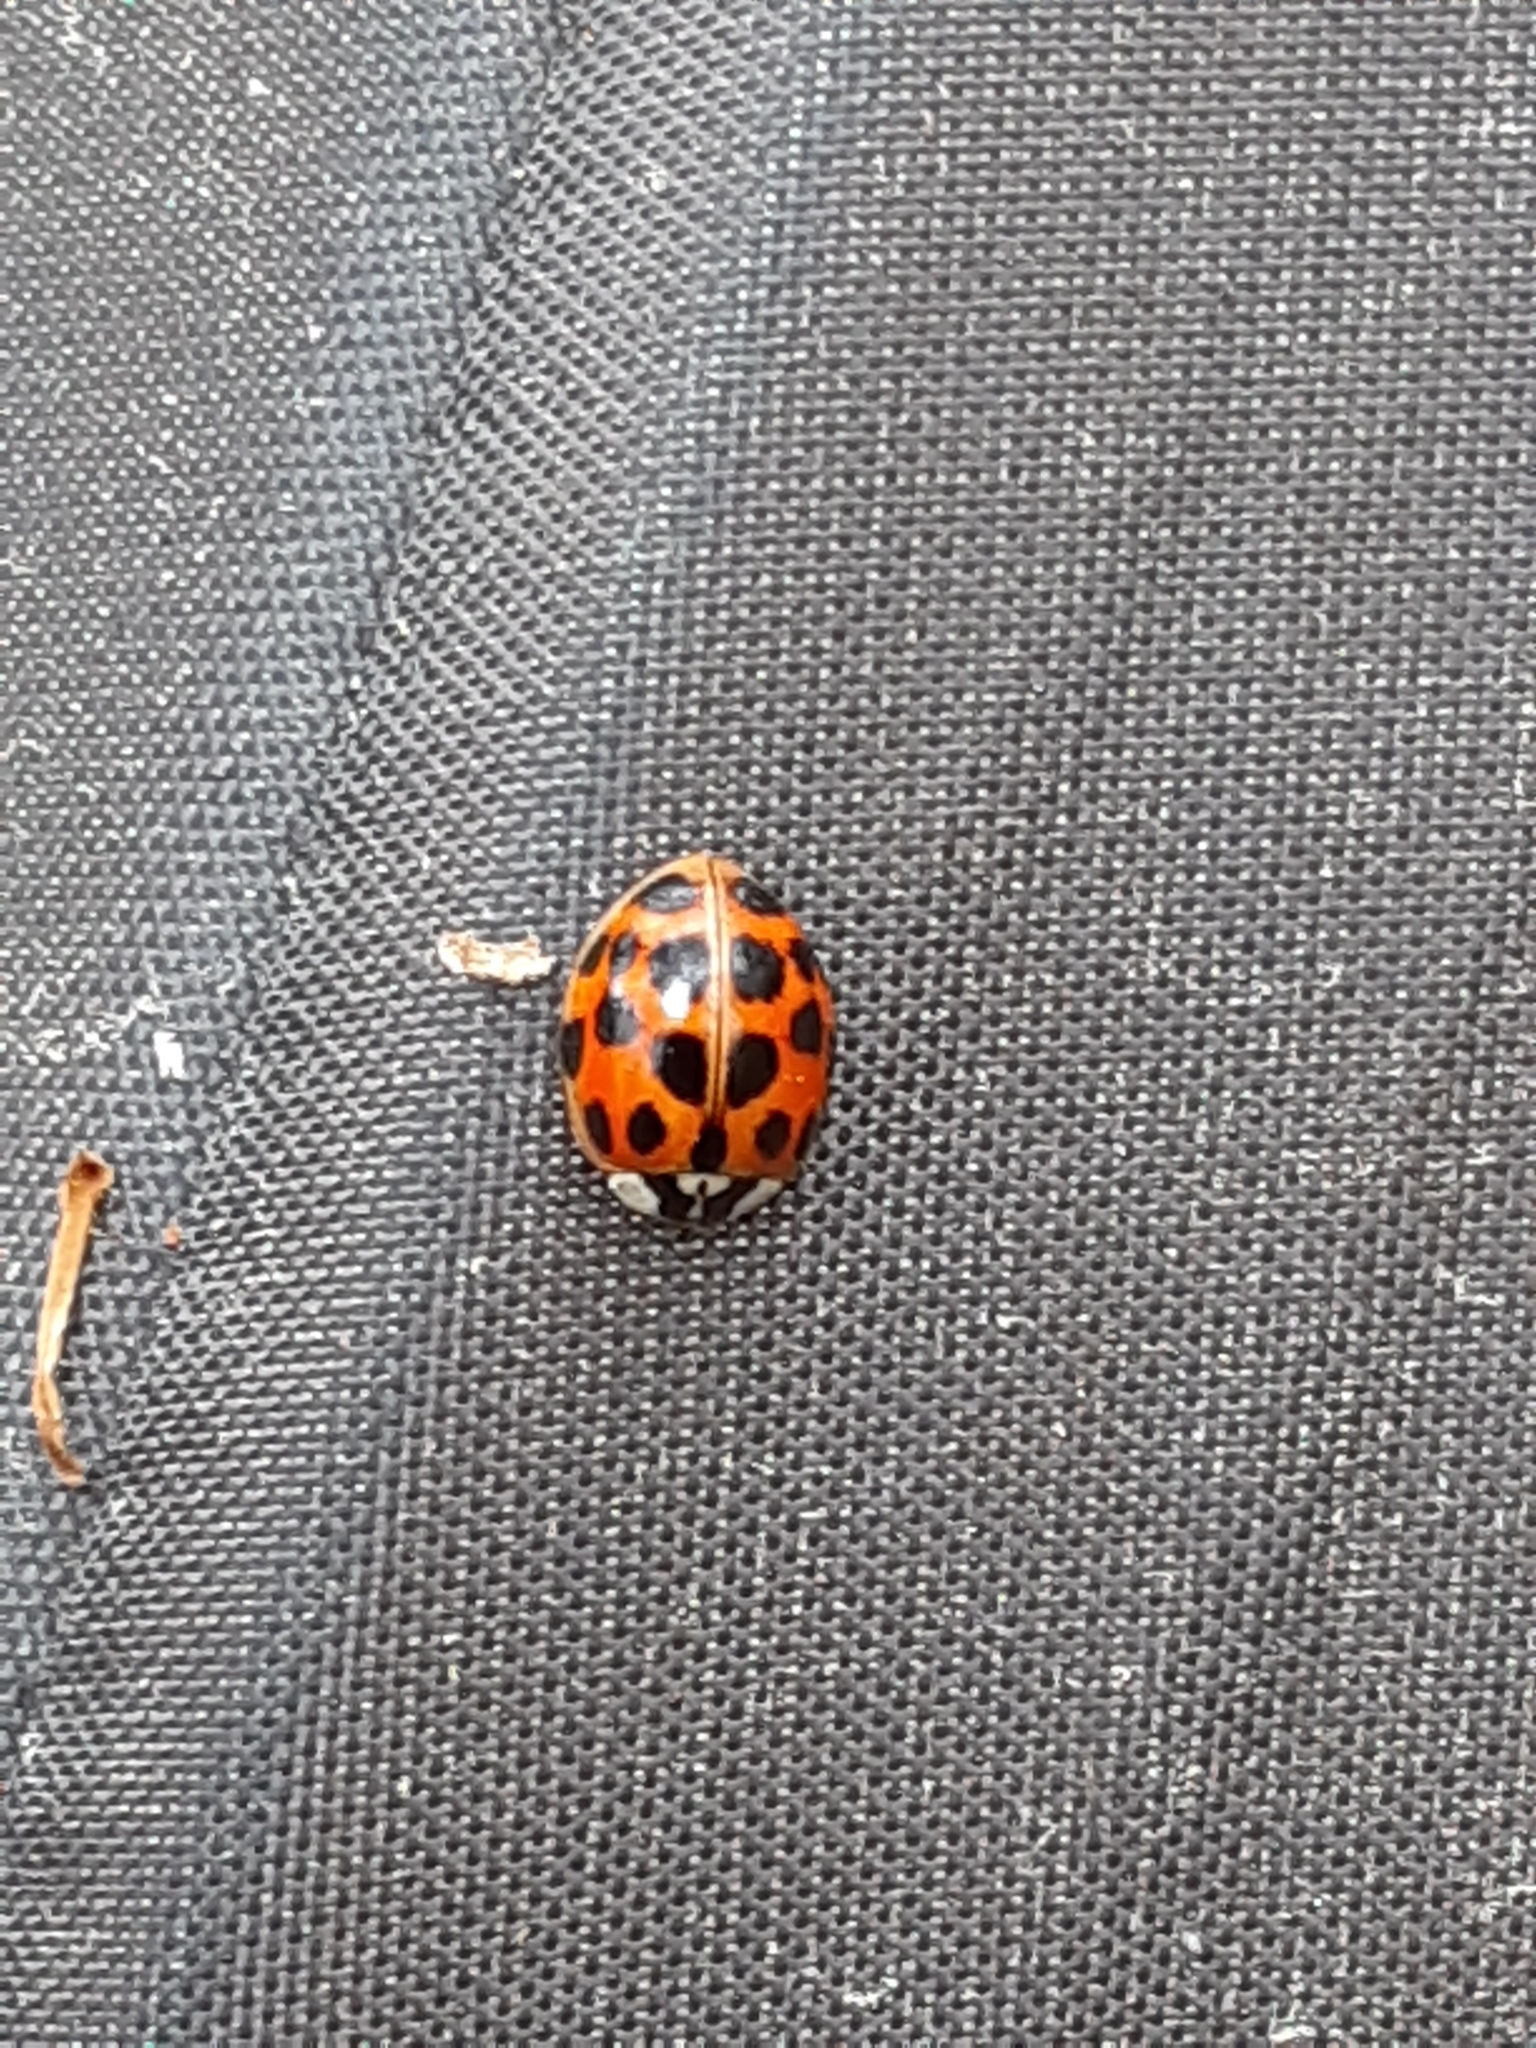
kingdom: Animalia
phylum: Arthropoda
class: Insecta
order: Coleoptera
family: Coccinellidae
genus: Harmonia
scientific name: Harmonia axyridis
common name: Harlequin ladybird
